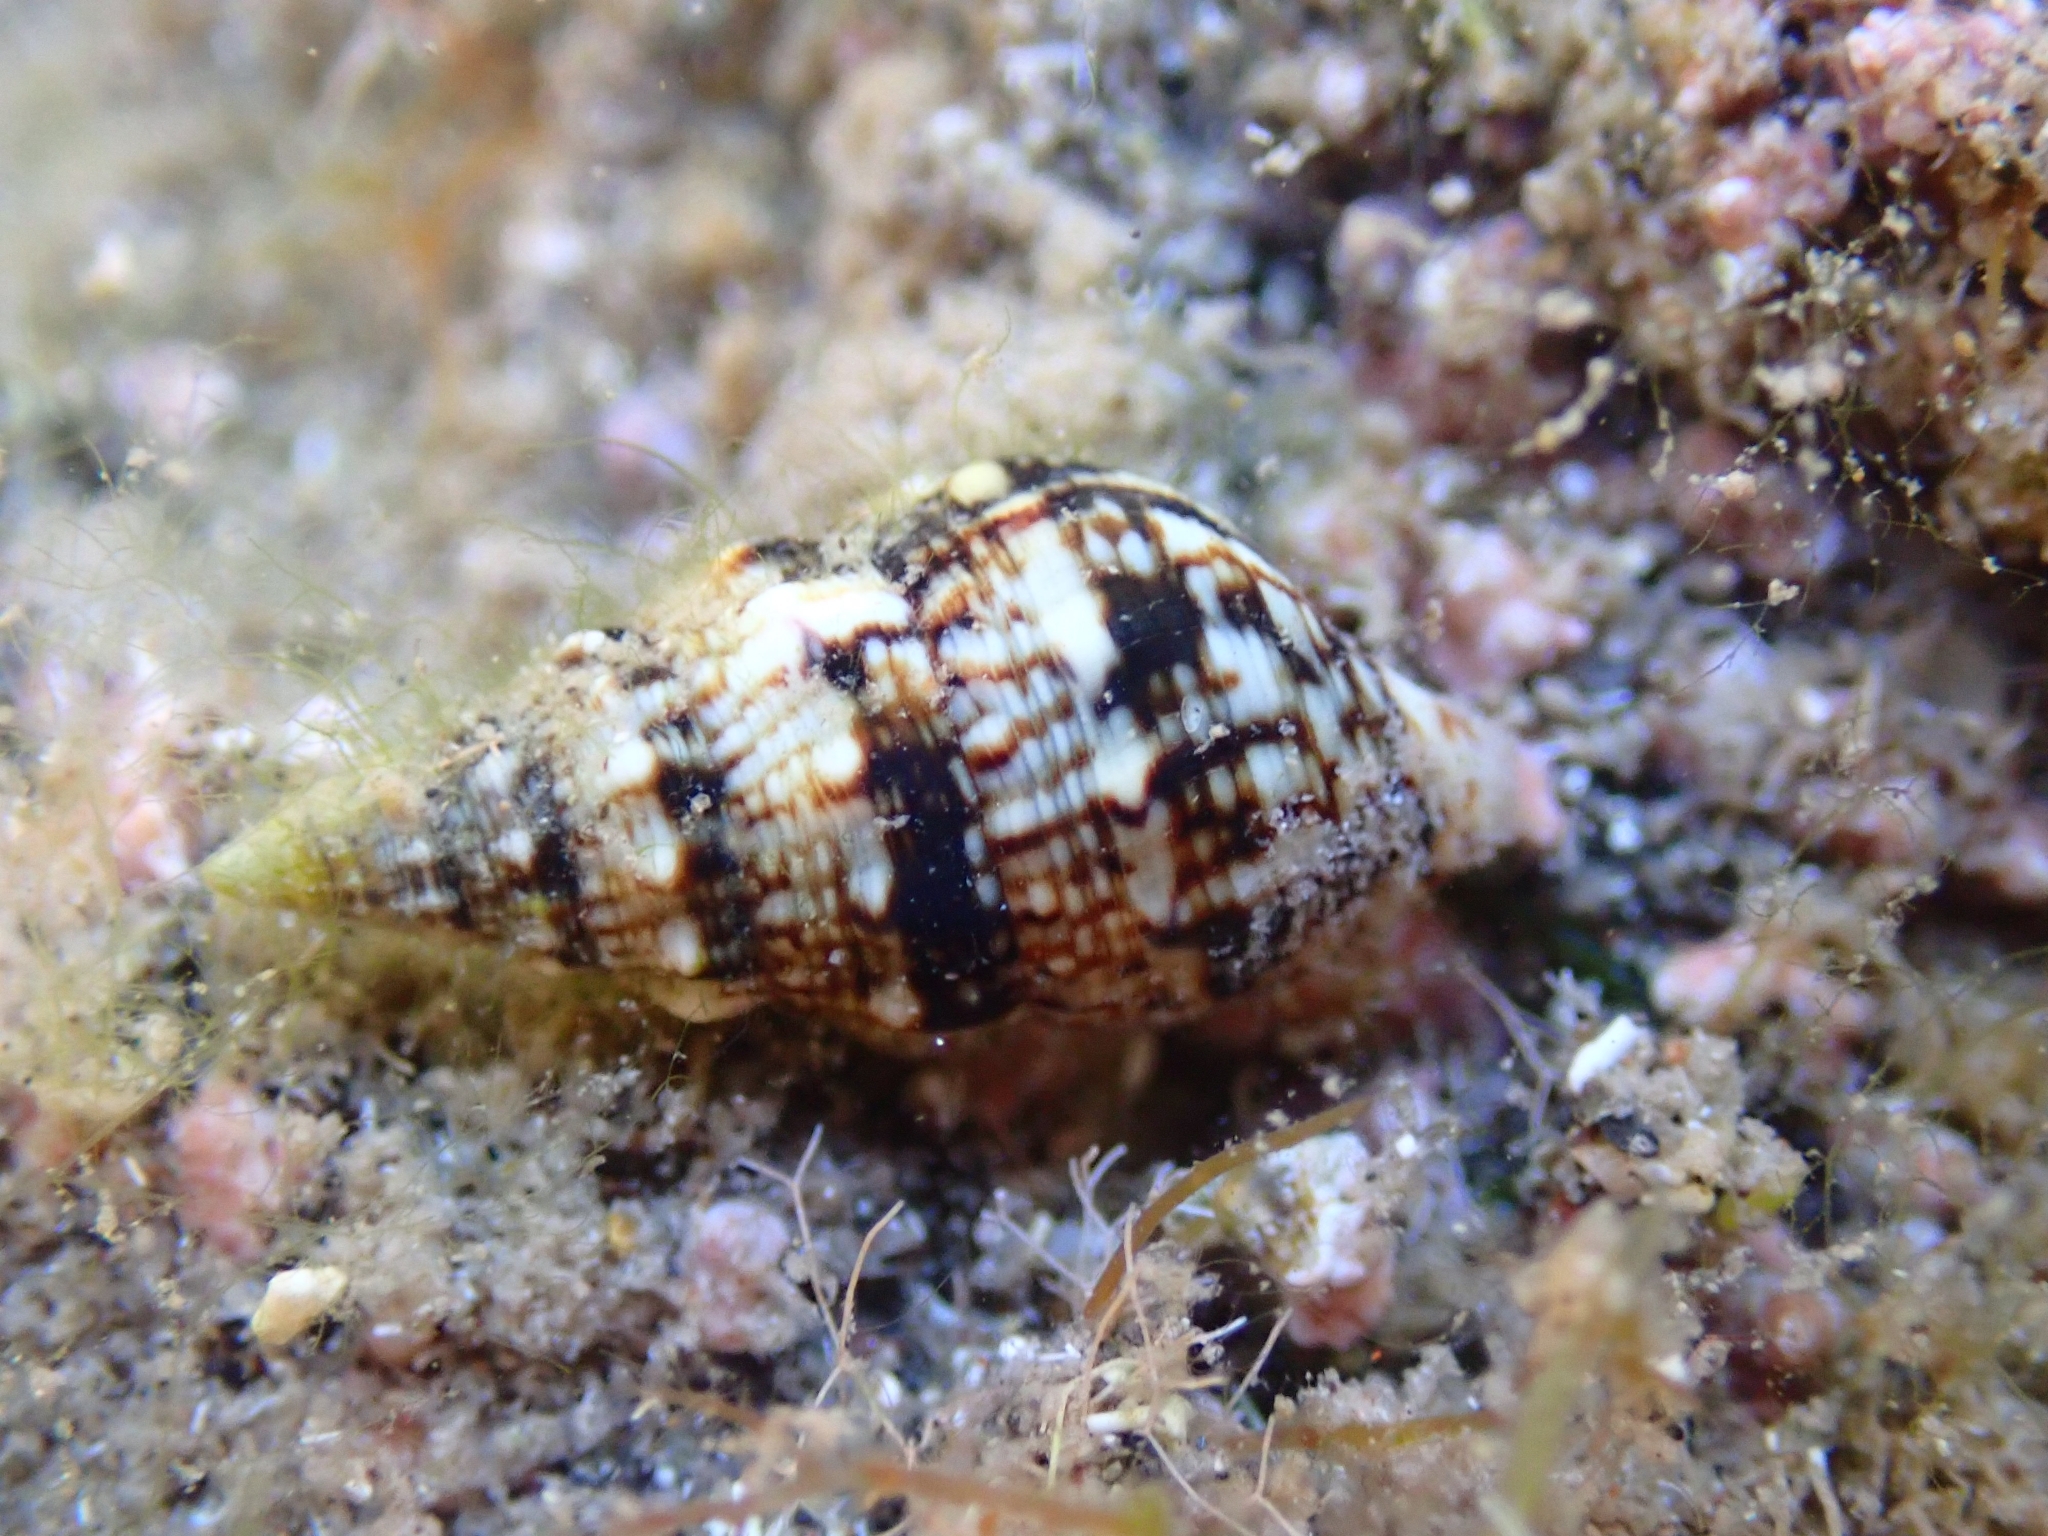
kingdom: Animalia
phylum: Mollusca
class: Gastropoda
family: Cerithiidae
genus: Cerithium
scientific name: Cerithium vulgatum
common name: European cerith
